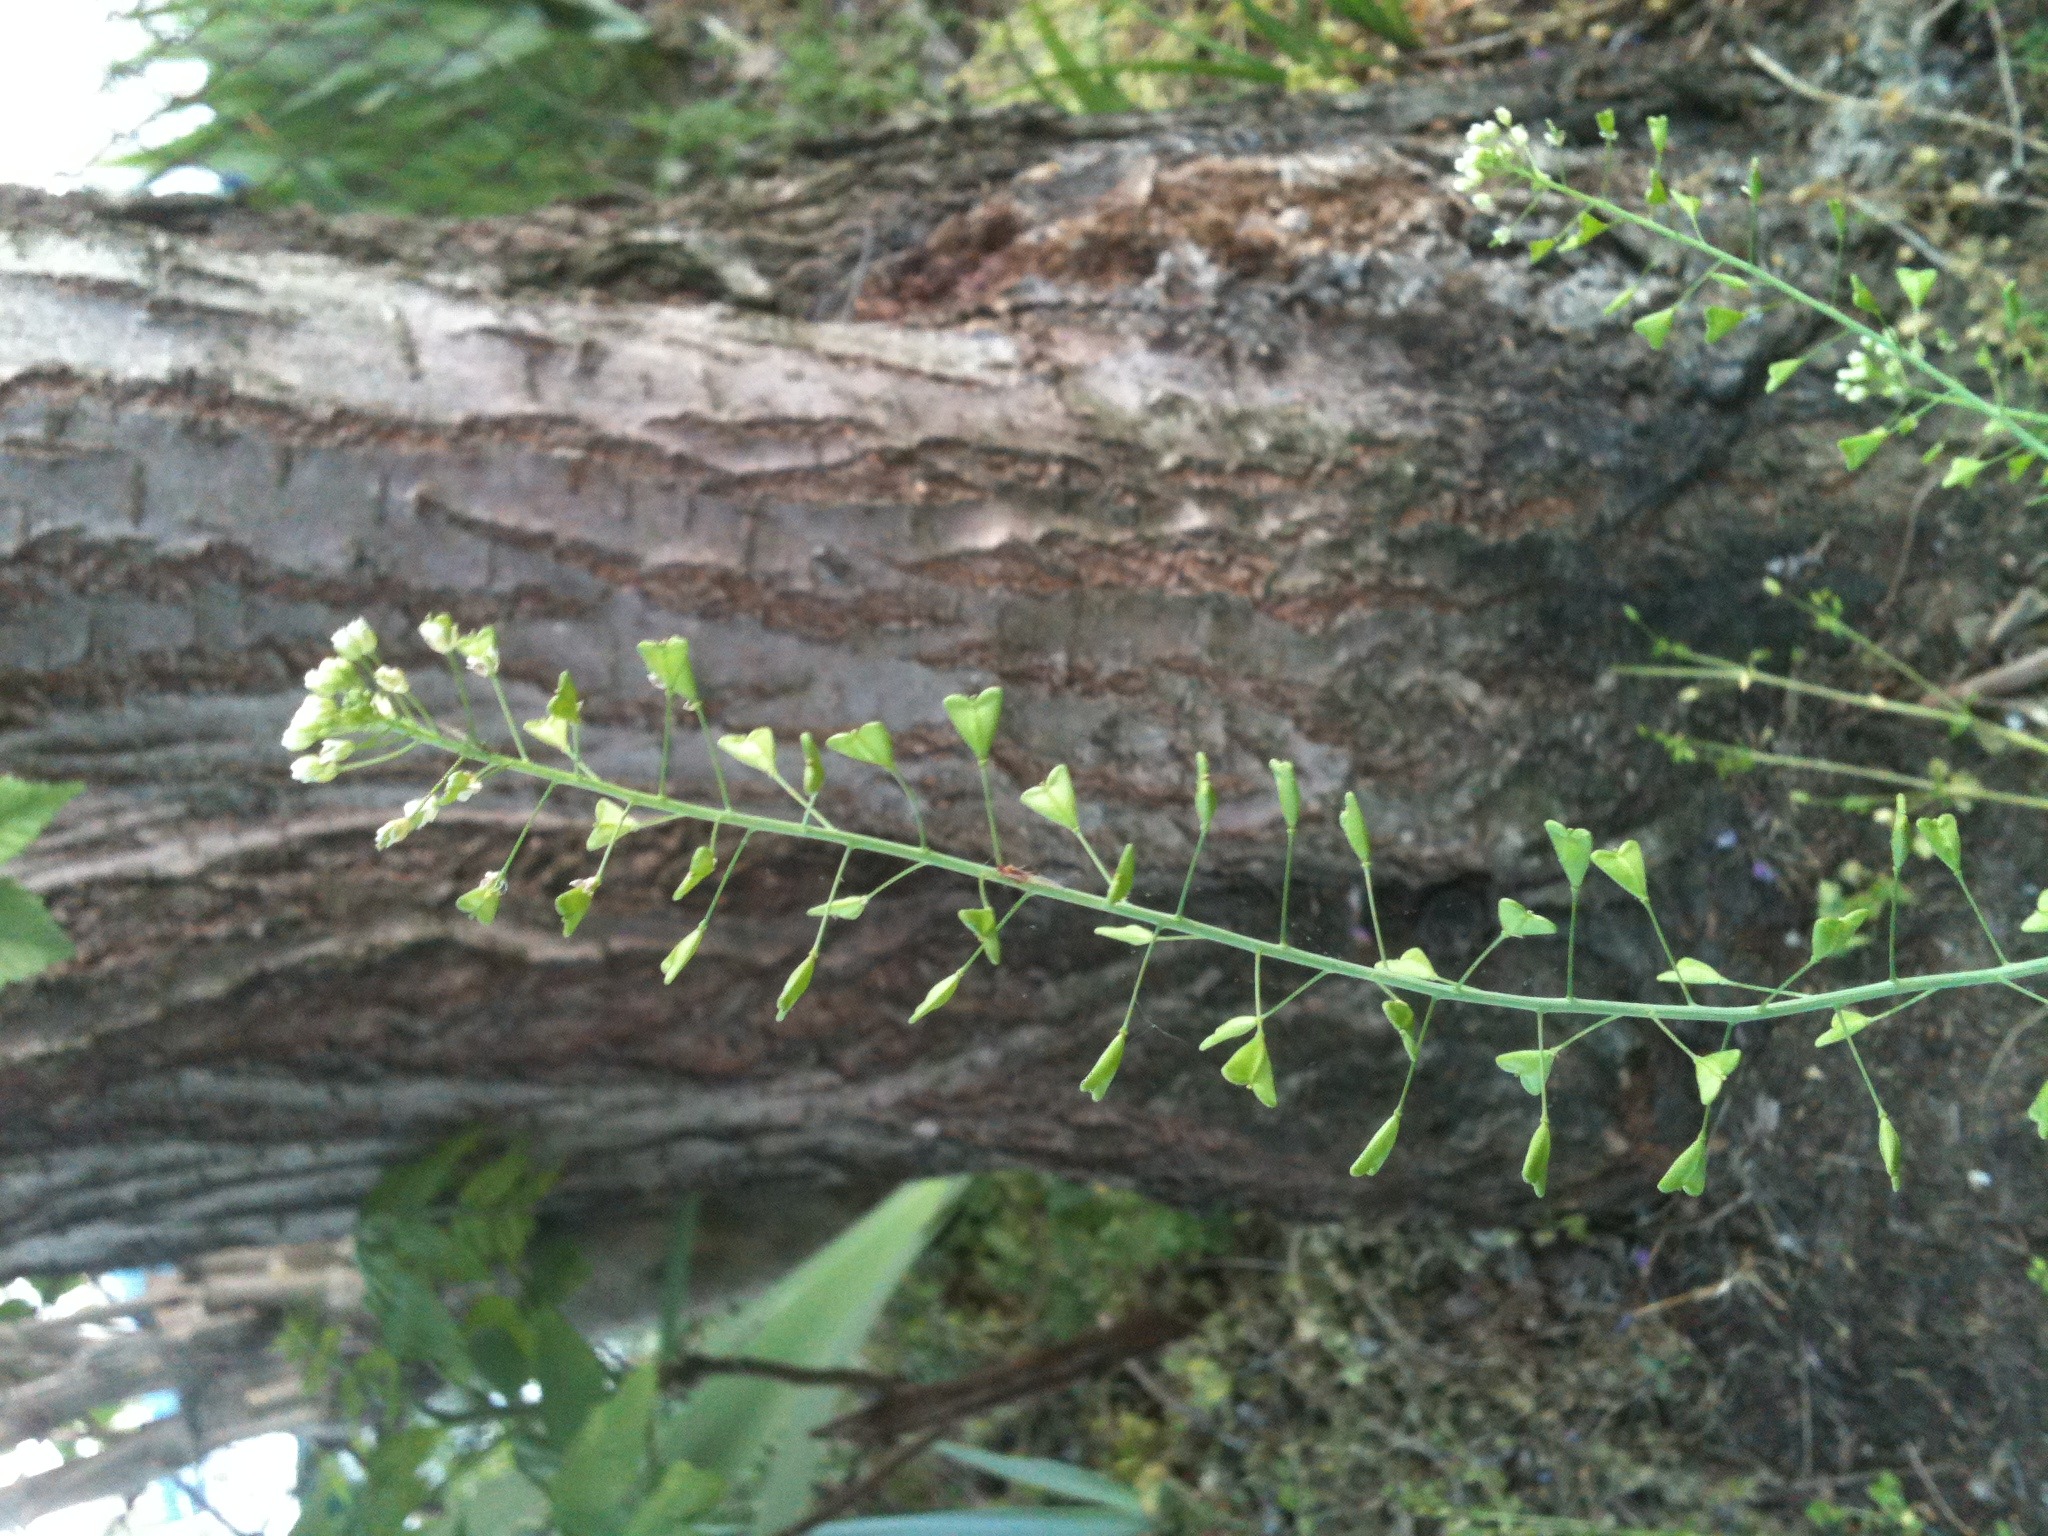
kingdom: Plantae
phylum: Tracheophyta
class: Magnoliopsida
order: Brassicales
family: Brassicaceae
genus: Capsella
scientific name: Capsella bursa-pastoris
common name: Shepherd's purse
